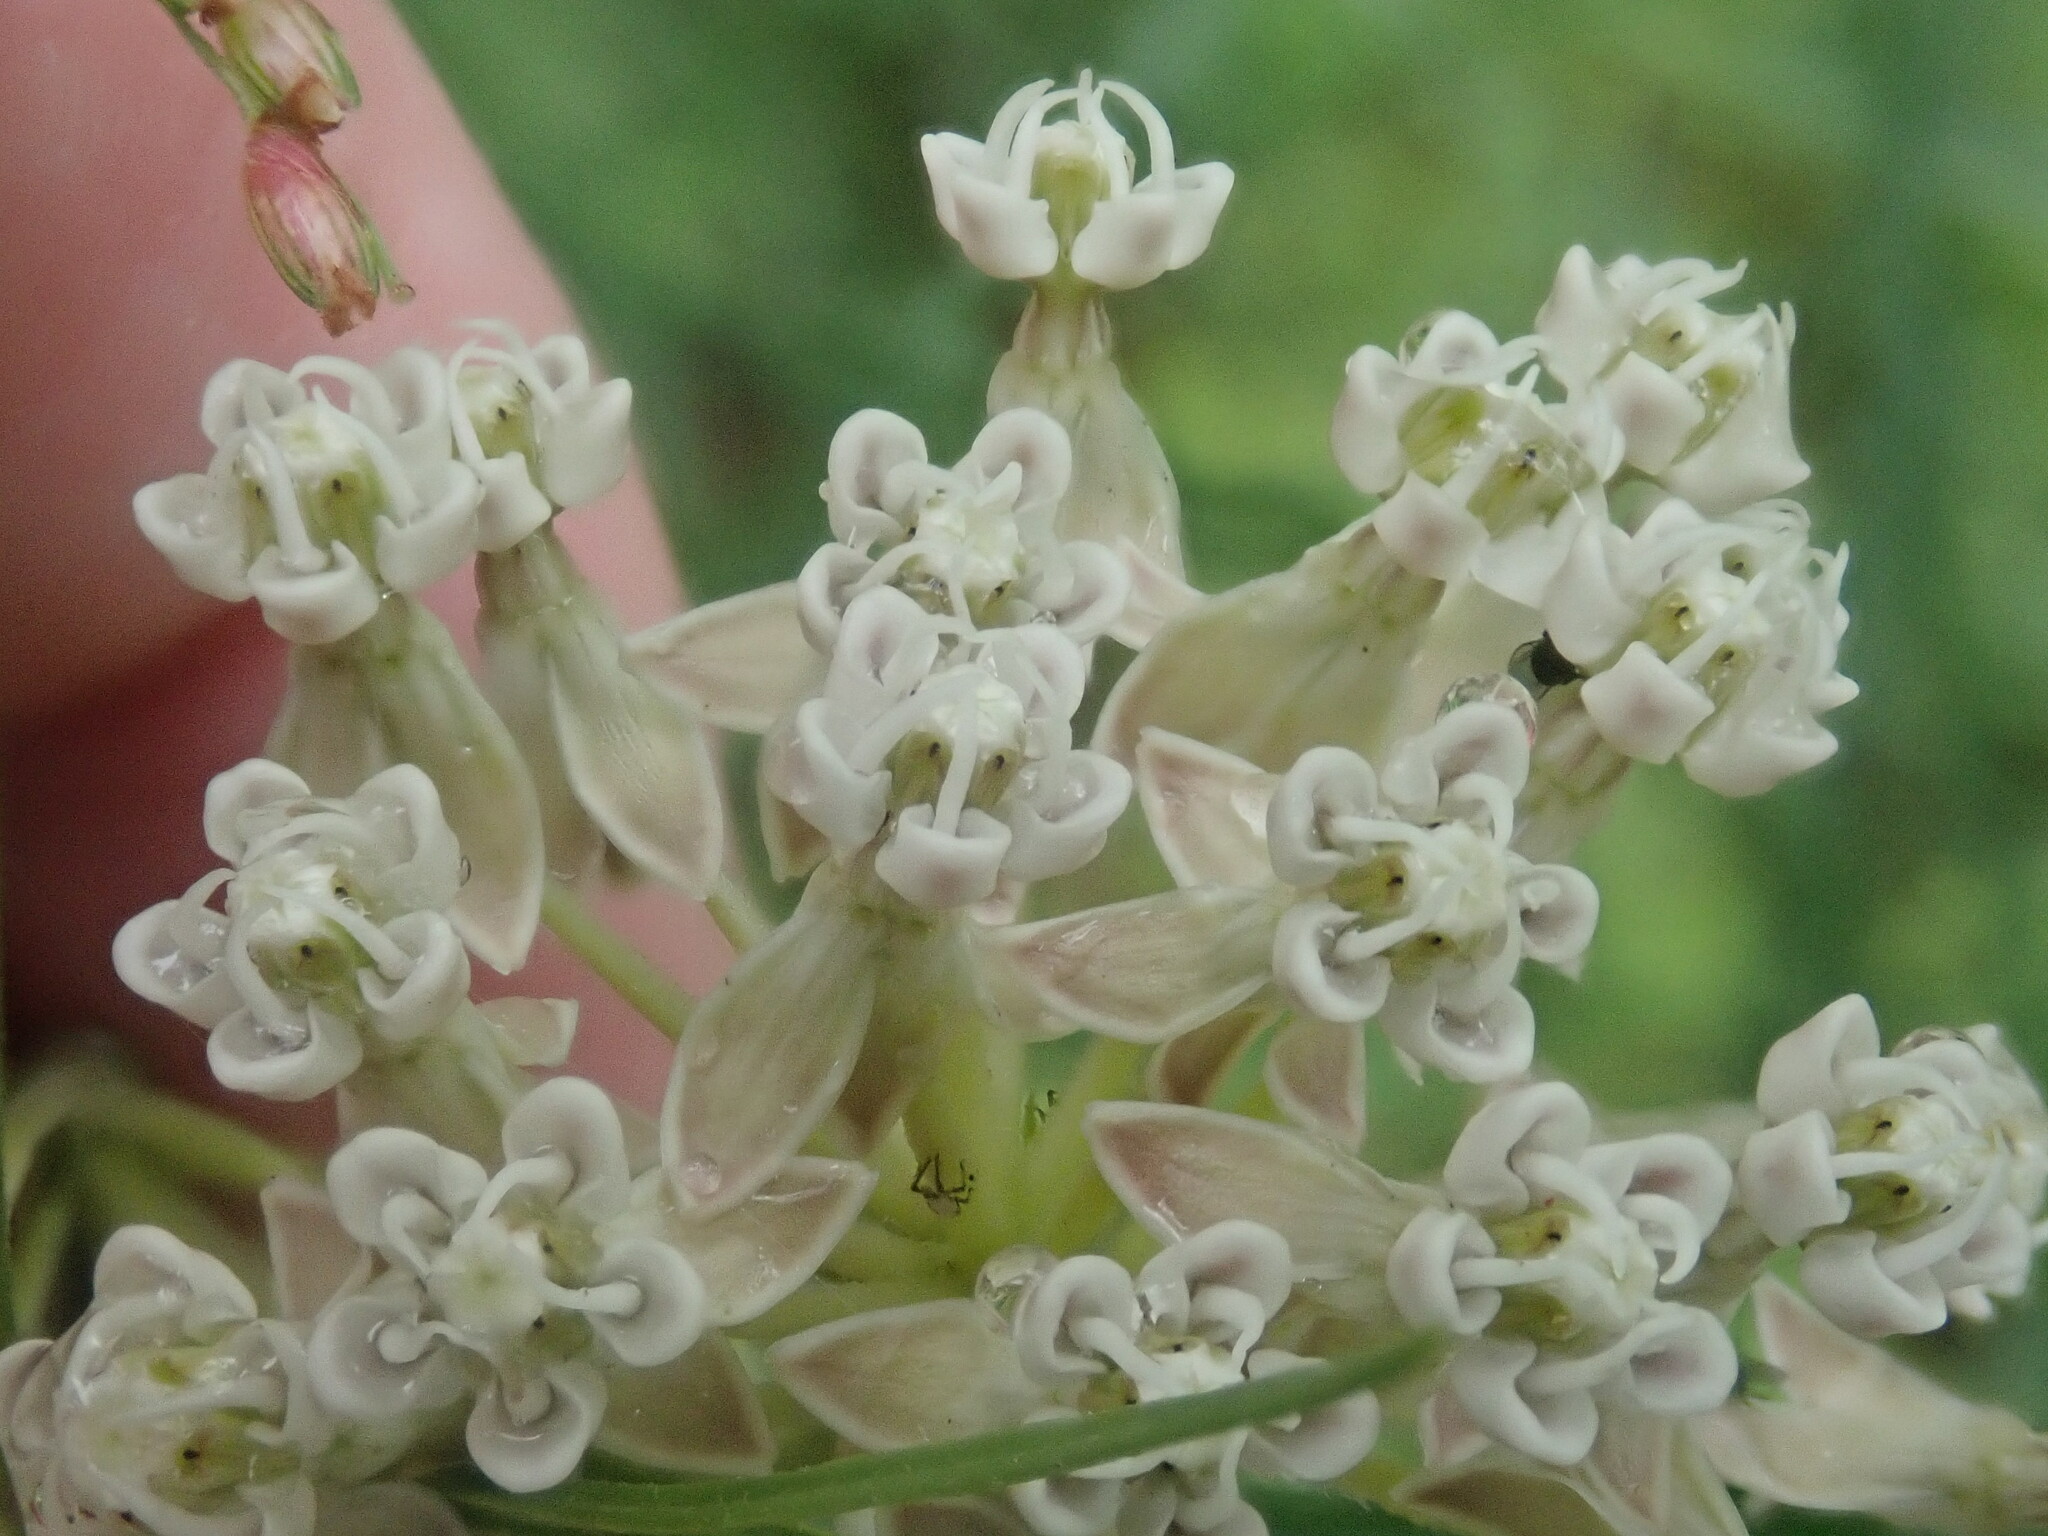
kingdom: Plantae
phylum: Tracheophyta
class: Magnoliopsida
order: Gentianales
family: Apocynaceae
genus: Asclepias
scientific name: Asclepias subverticillata
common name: Horsetail milkweed
